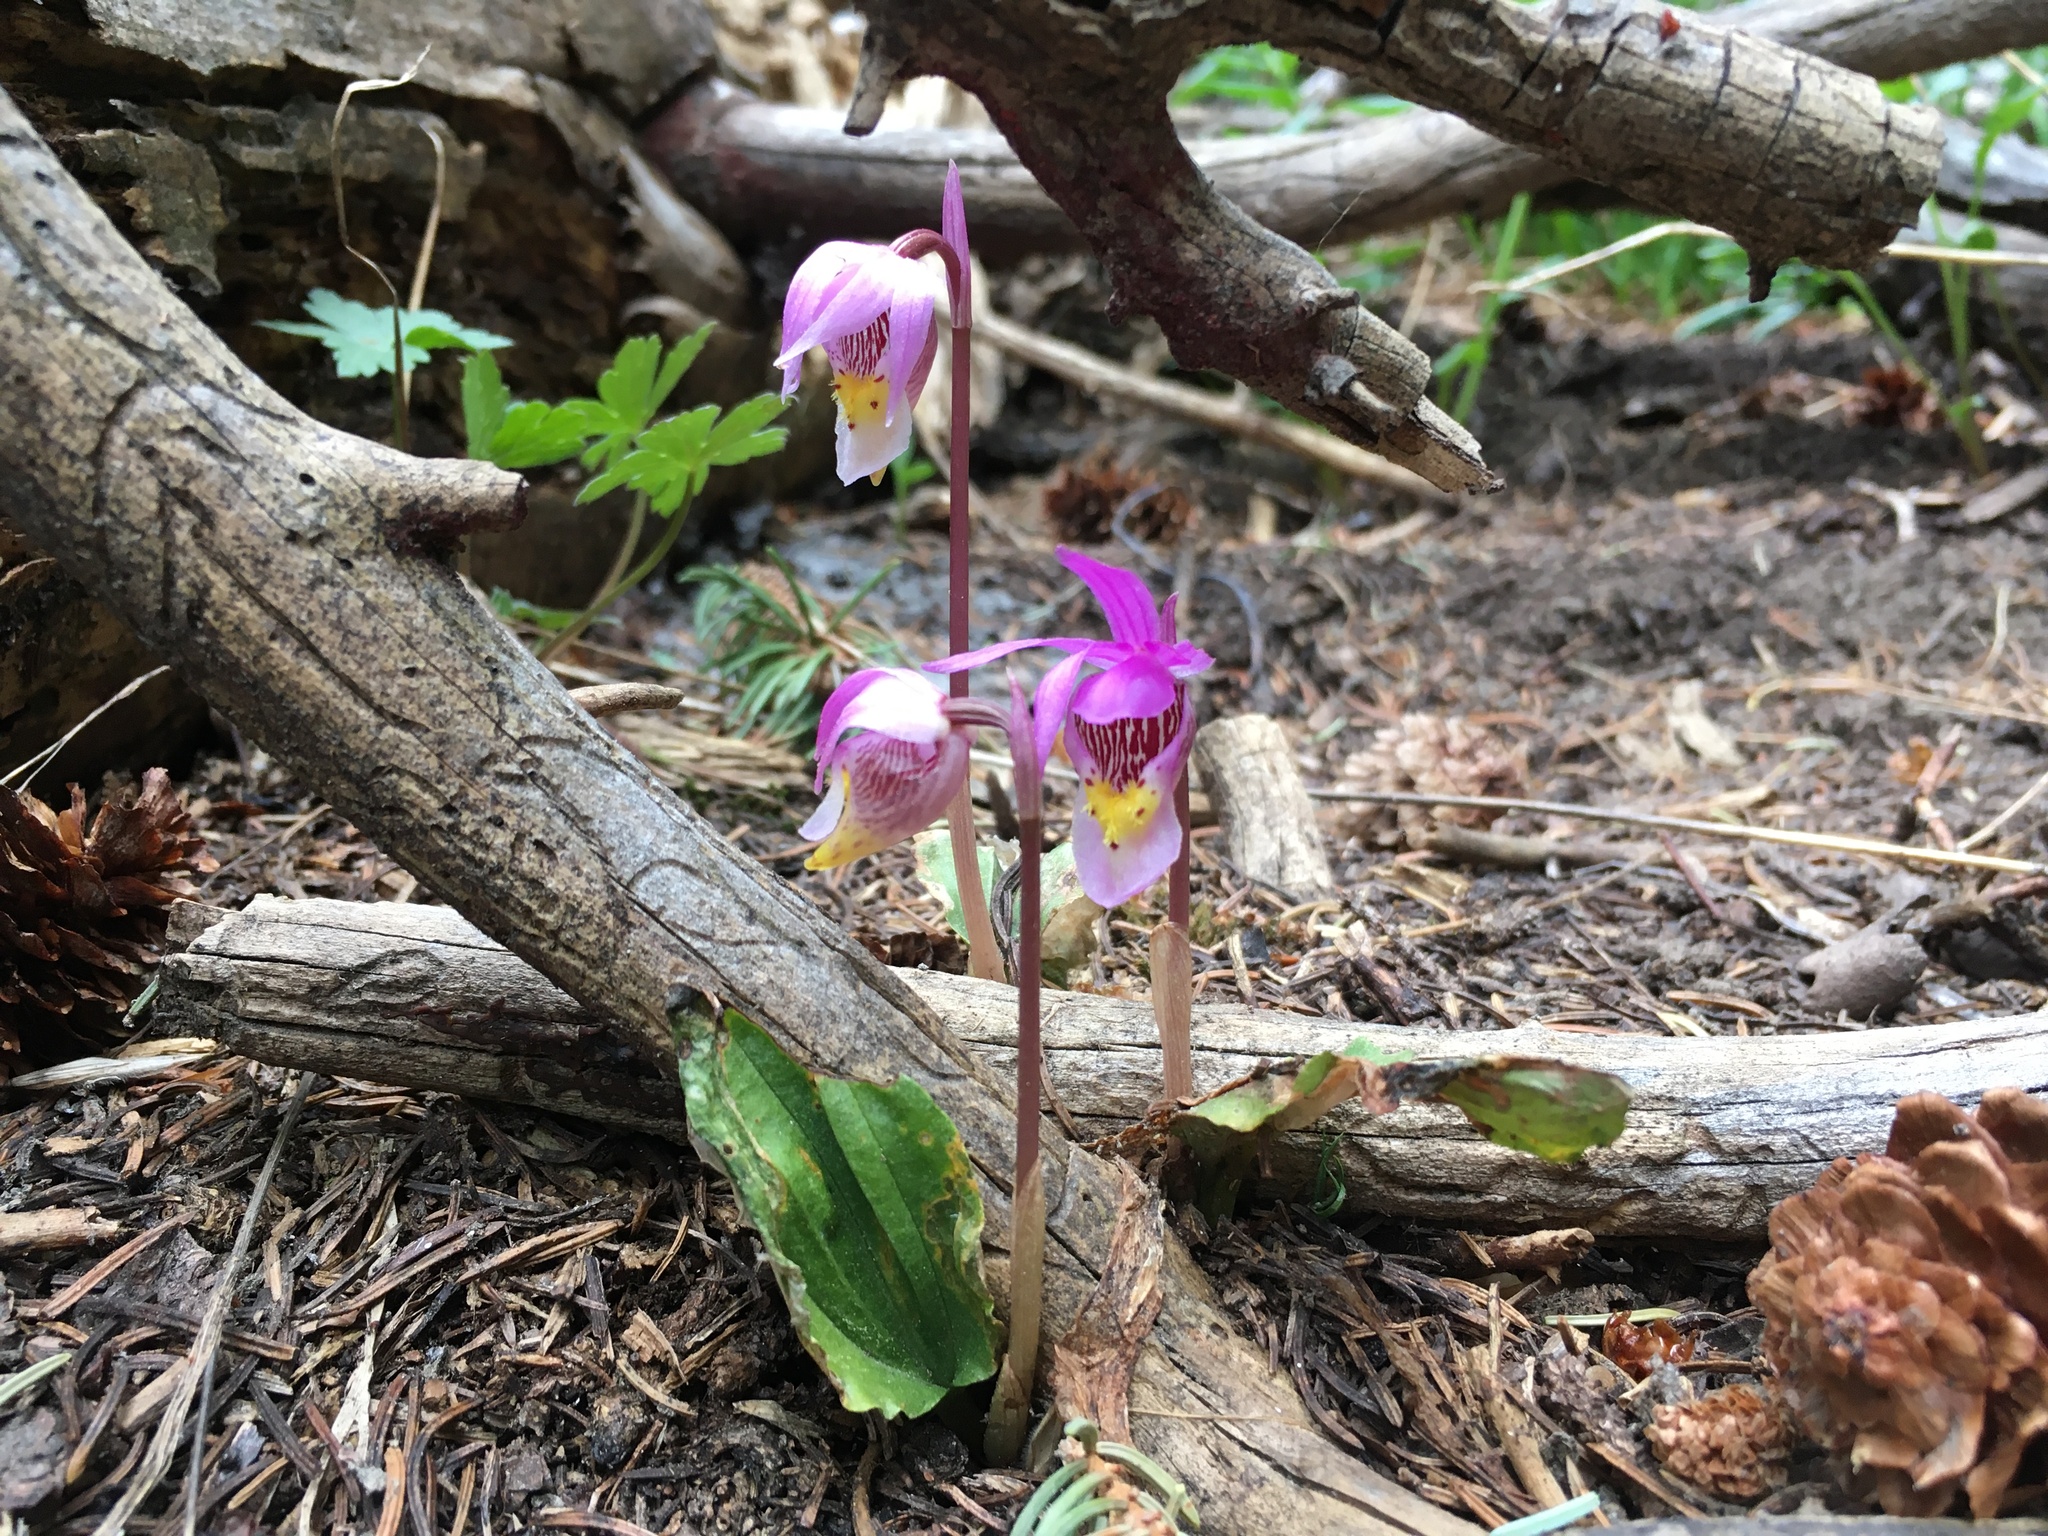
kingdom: Plantae
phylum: Tracheophyta
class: Liliopsida
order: Asparagales
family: Orchidaceae
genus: Calypso
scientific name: Calypso bulbosa
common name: Calypso
